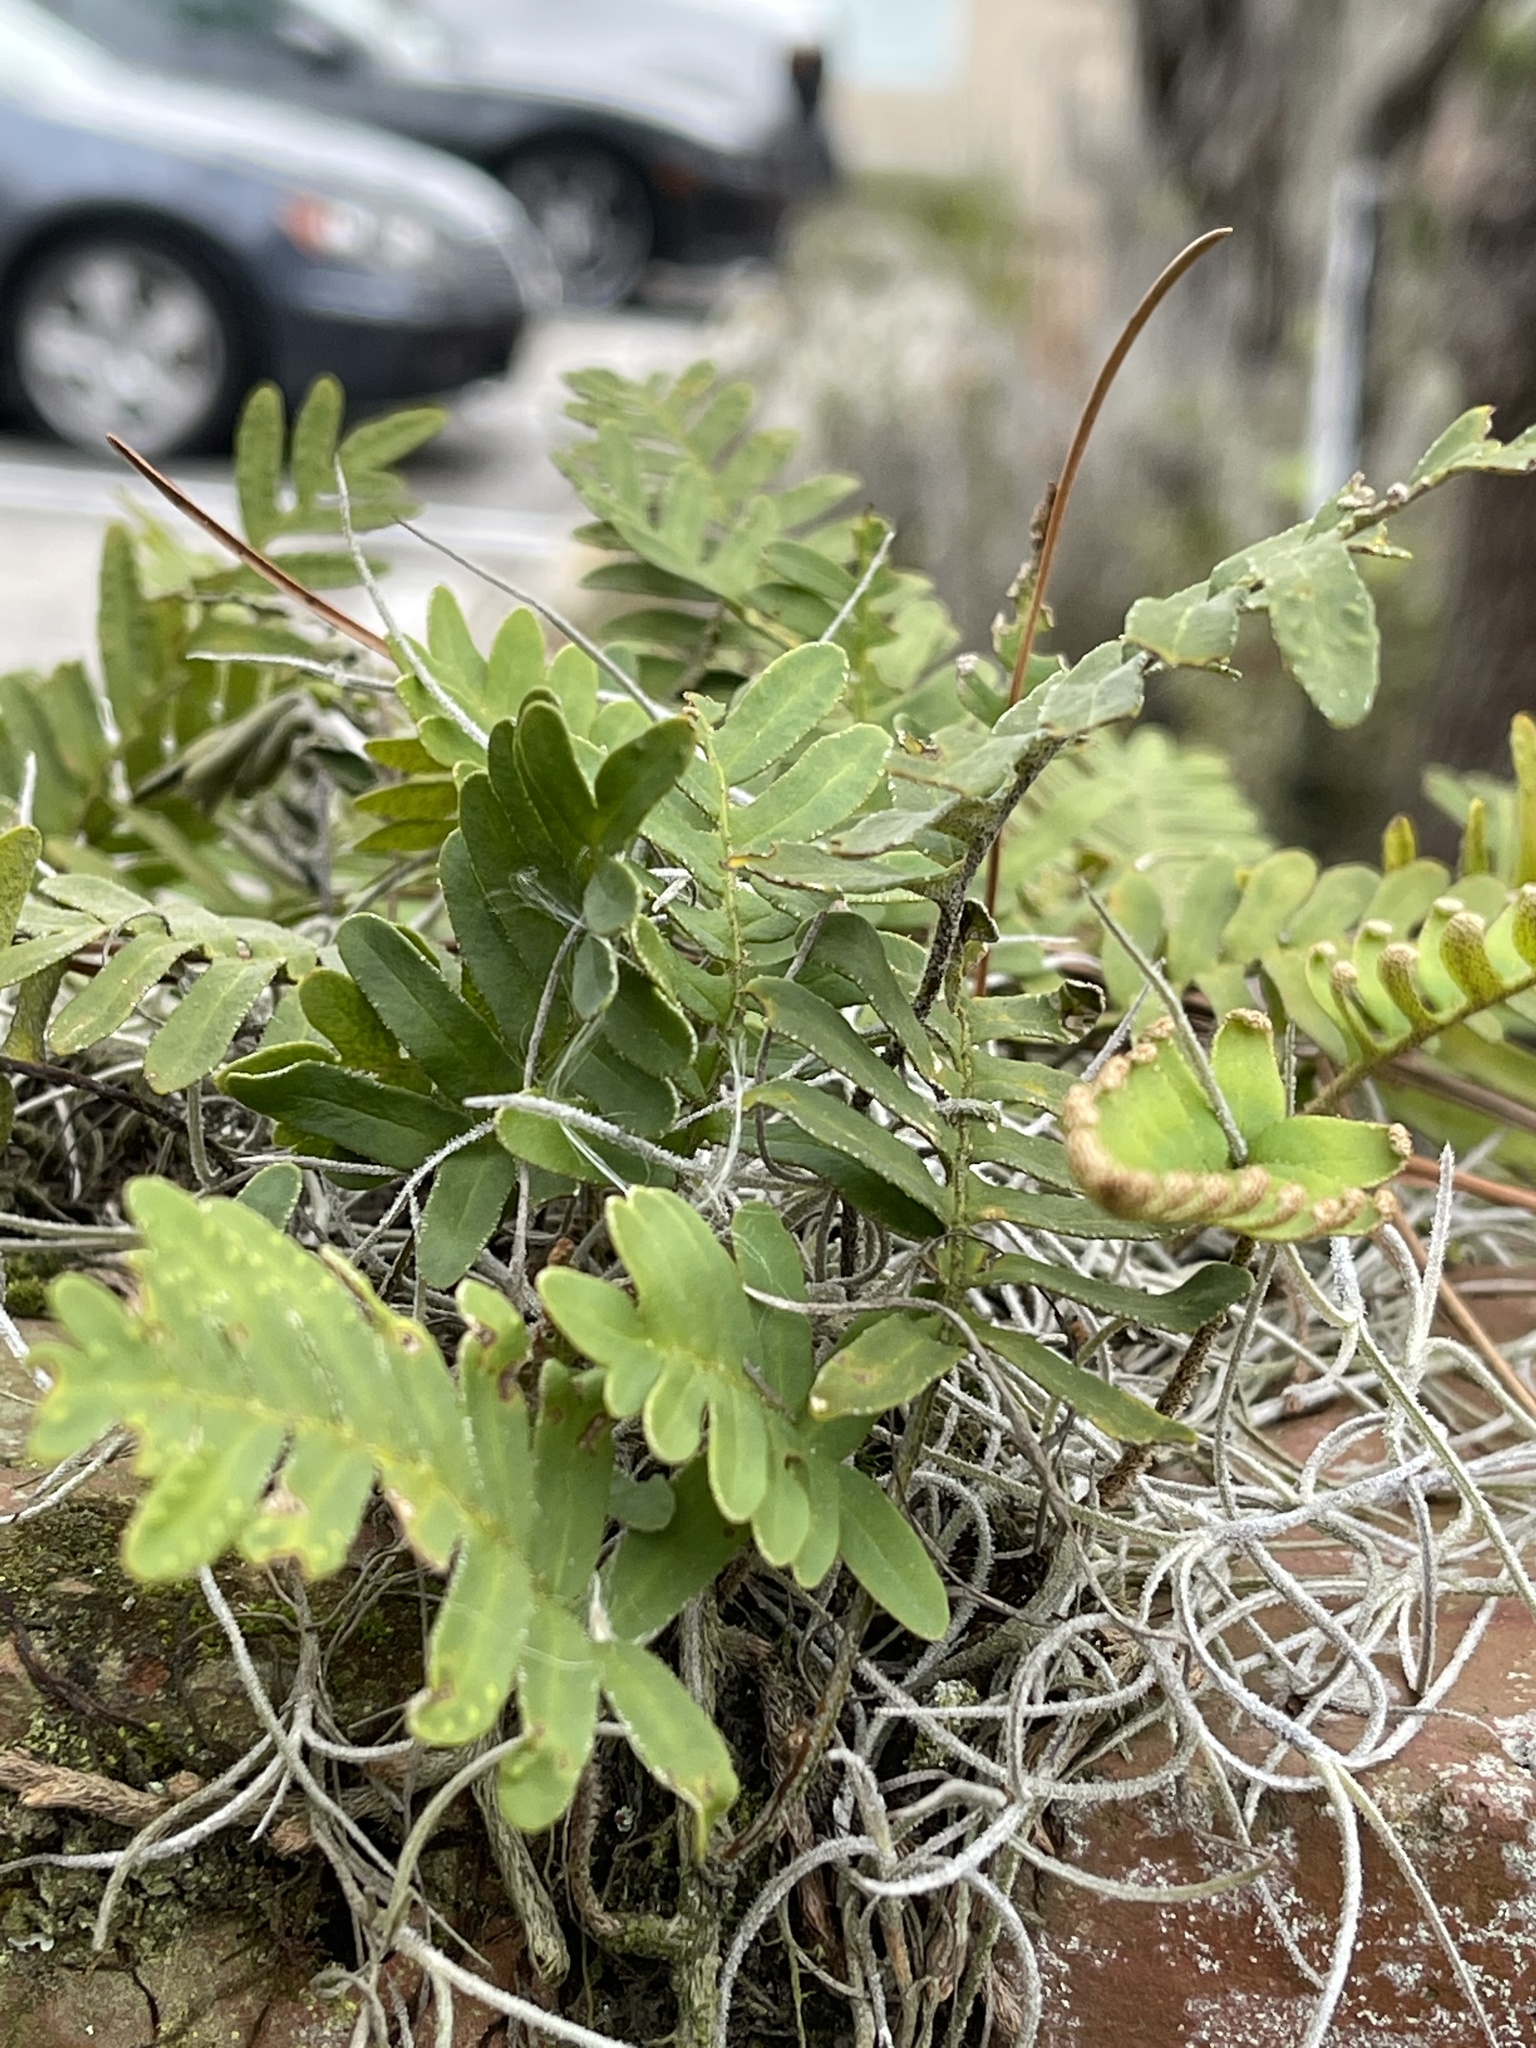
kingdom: Plantae
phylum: Tracheophyta
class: Polypodiopsida
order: Polypodiales
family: Polypodiaceae
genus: Pleopeltis
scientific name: Pleopeltis michauxiana
